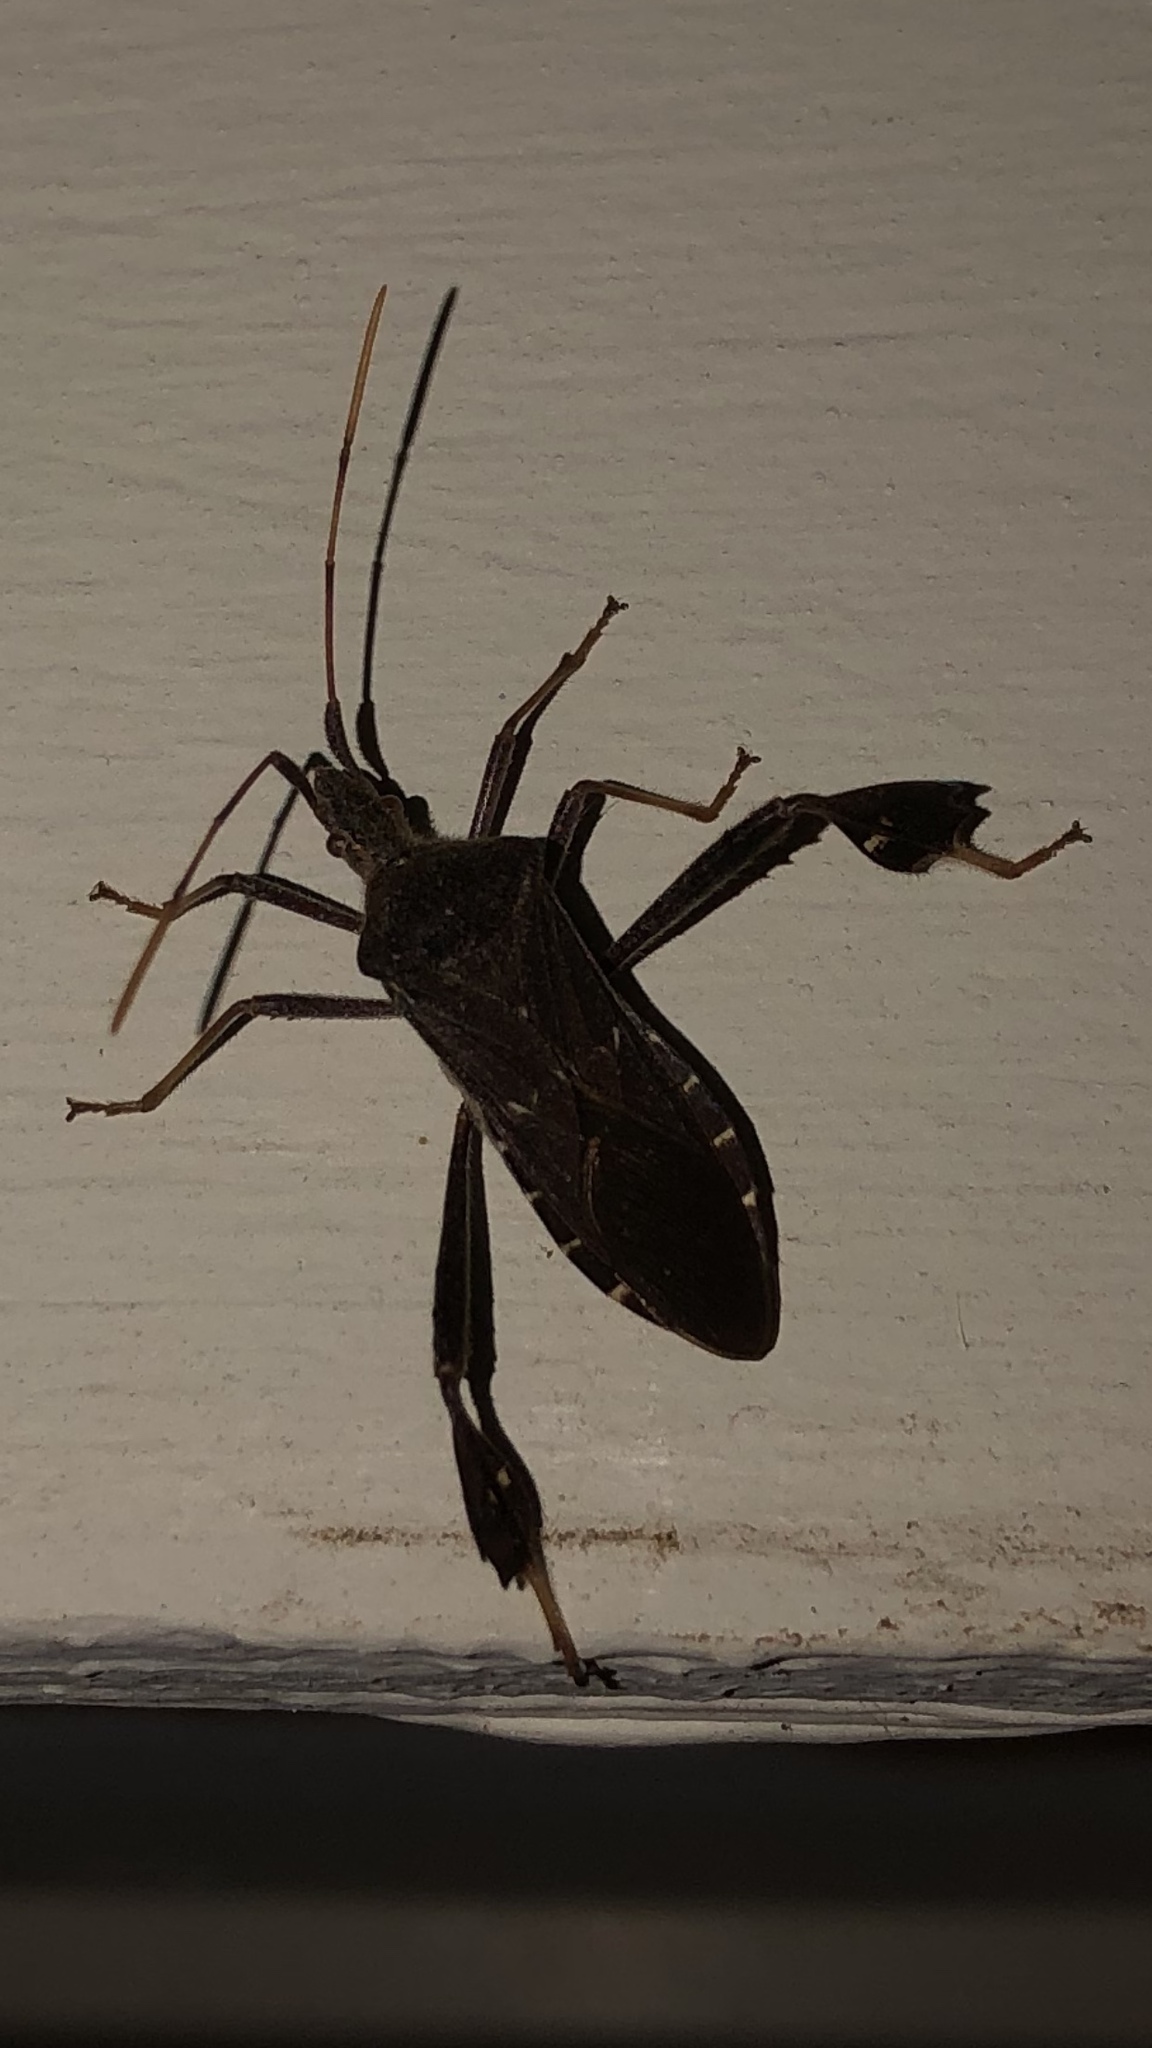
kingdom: Animalia
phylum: Arthropoda
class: Insecta
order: Hemiptera
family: Coreidae
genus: Leptoglossus
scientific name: Leptoglossus oppositus
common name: Northern leaf-footed bug
